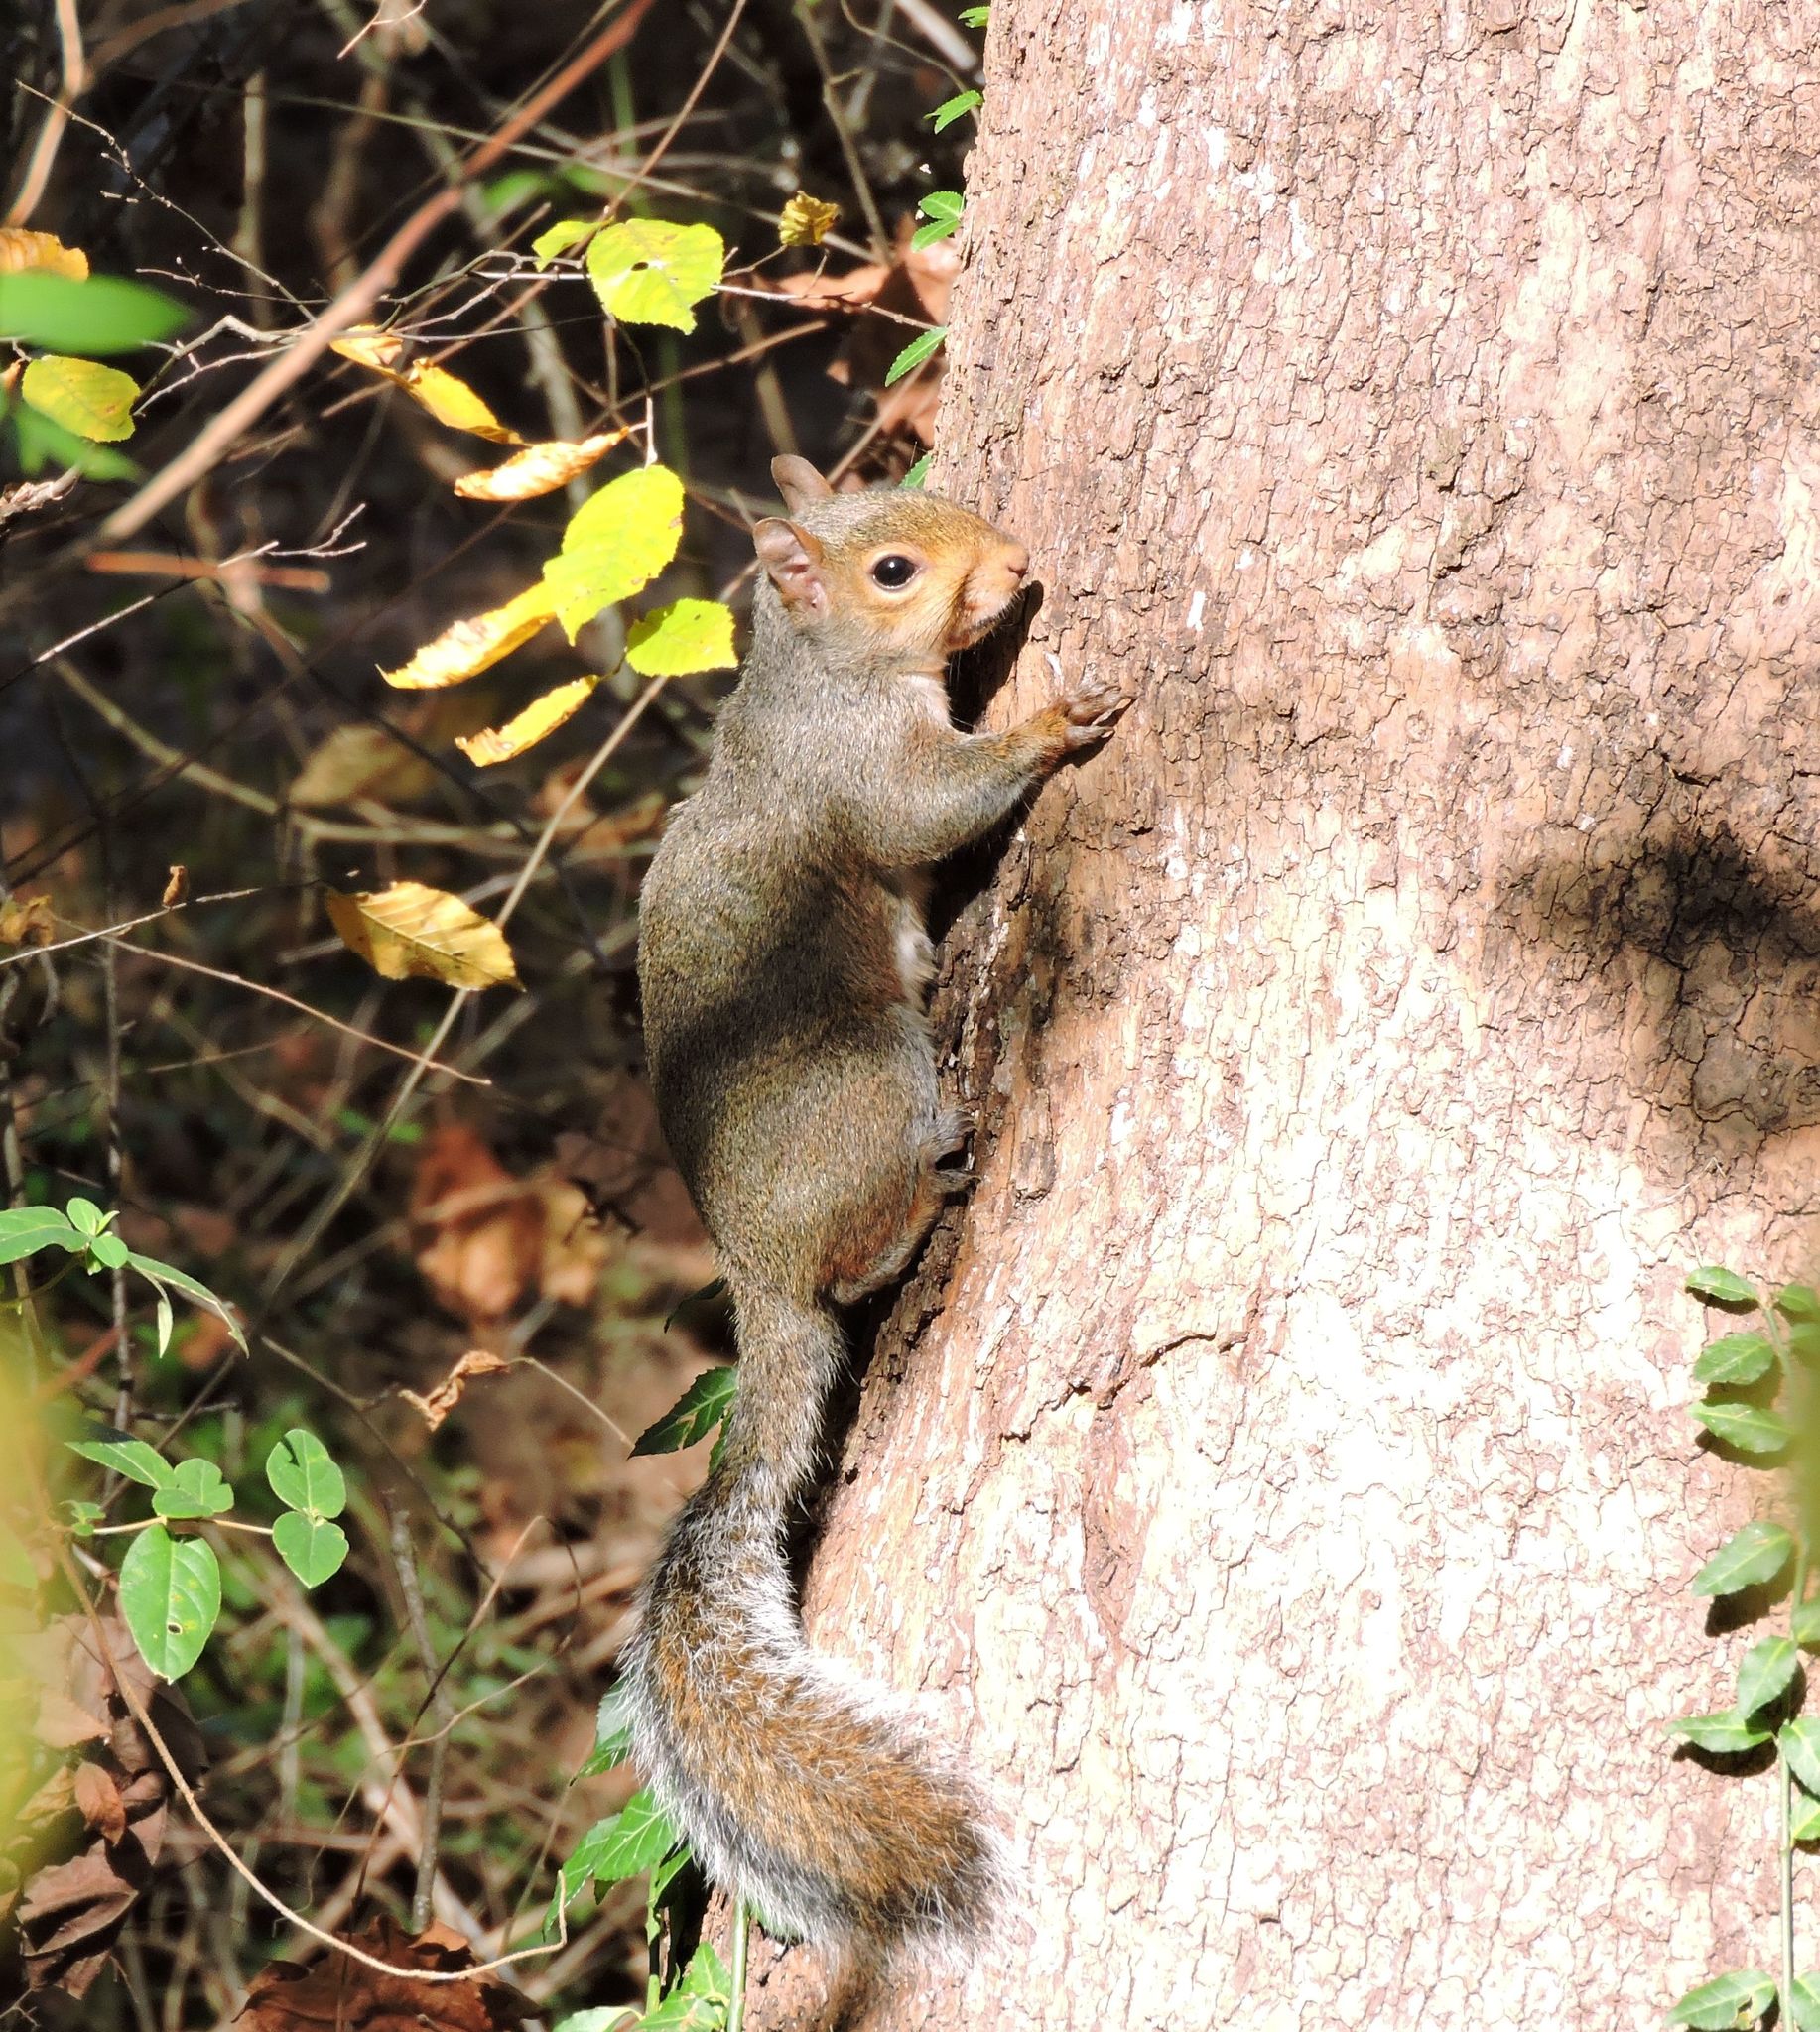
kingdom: Animalia
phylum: Chordata
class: Mammalia
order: Rodentia
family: Sciuridae
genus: Sciurus
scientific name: Sciurus carolinensis
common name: Eastern gray squirrel
